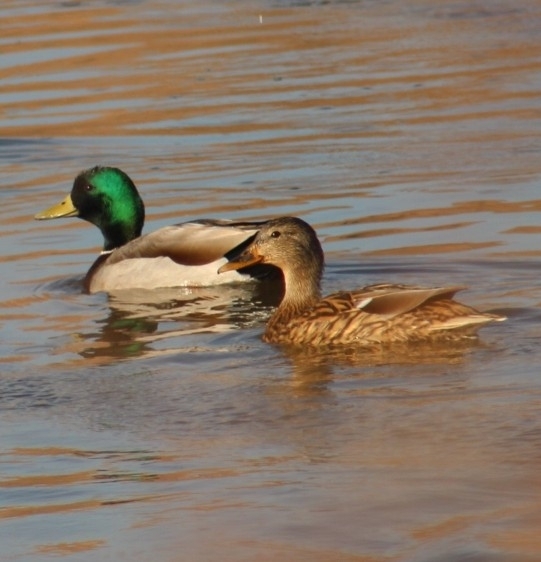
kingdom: Animalia
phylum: Chordata
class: Aves
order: Anseriformes
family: Anatidae
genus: Anas
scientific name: Anas platyrhynchos
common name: Mallard
